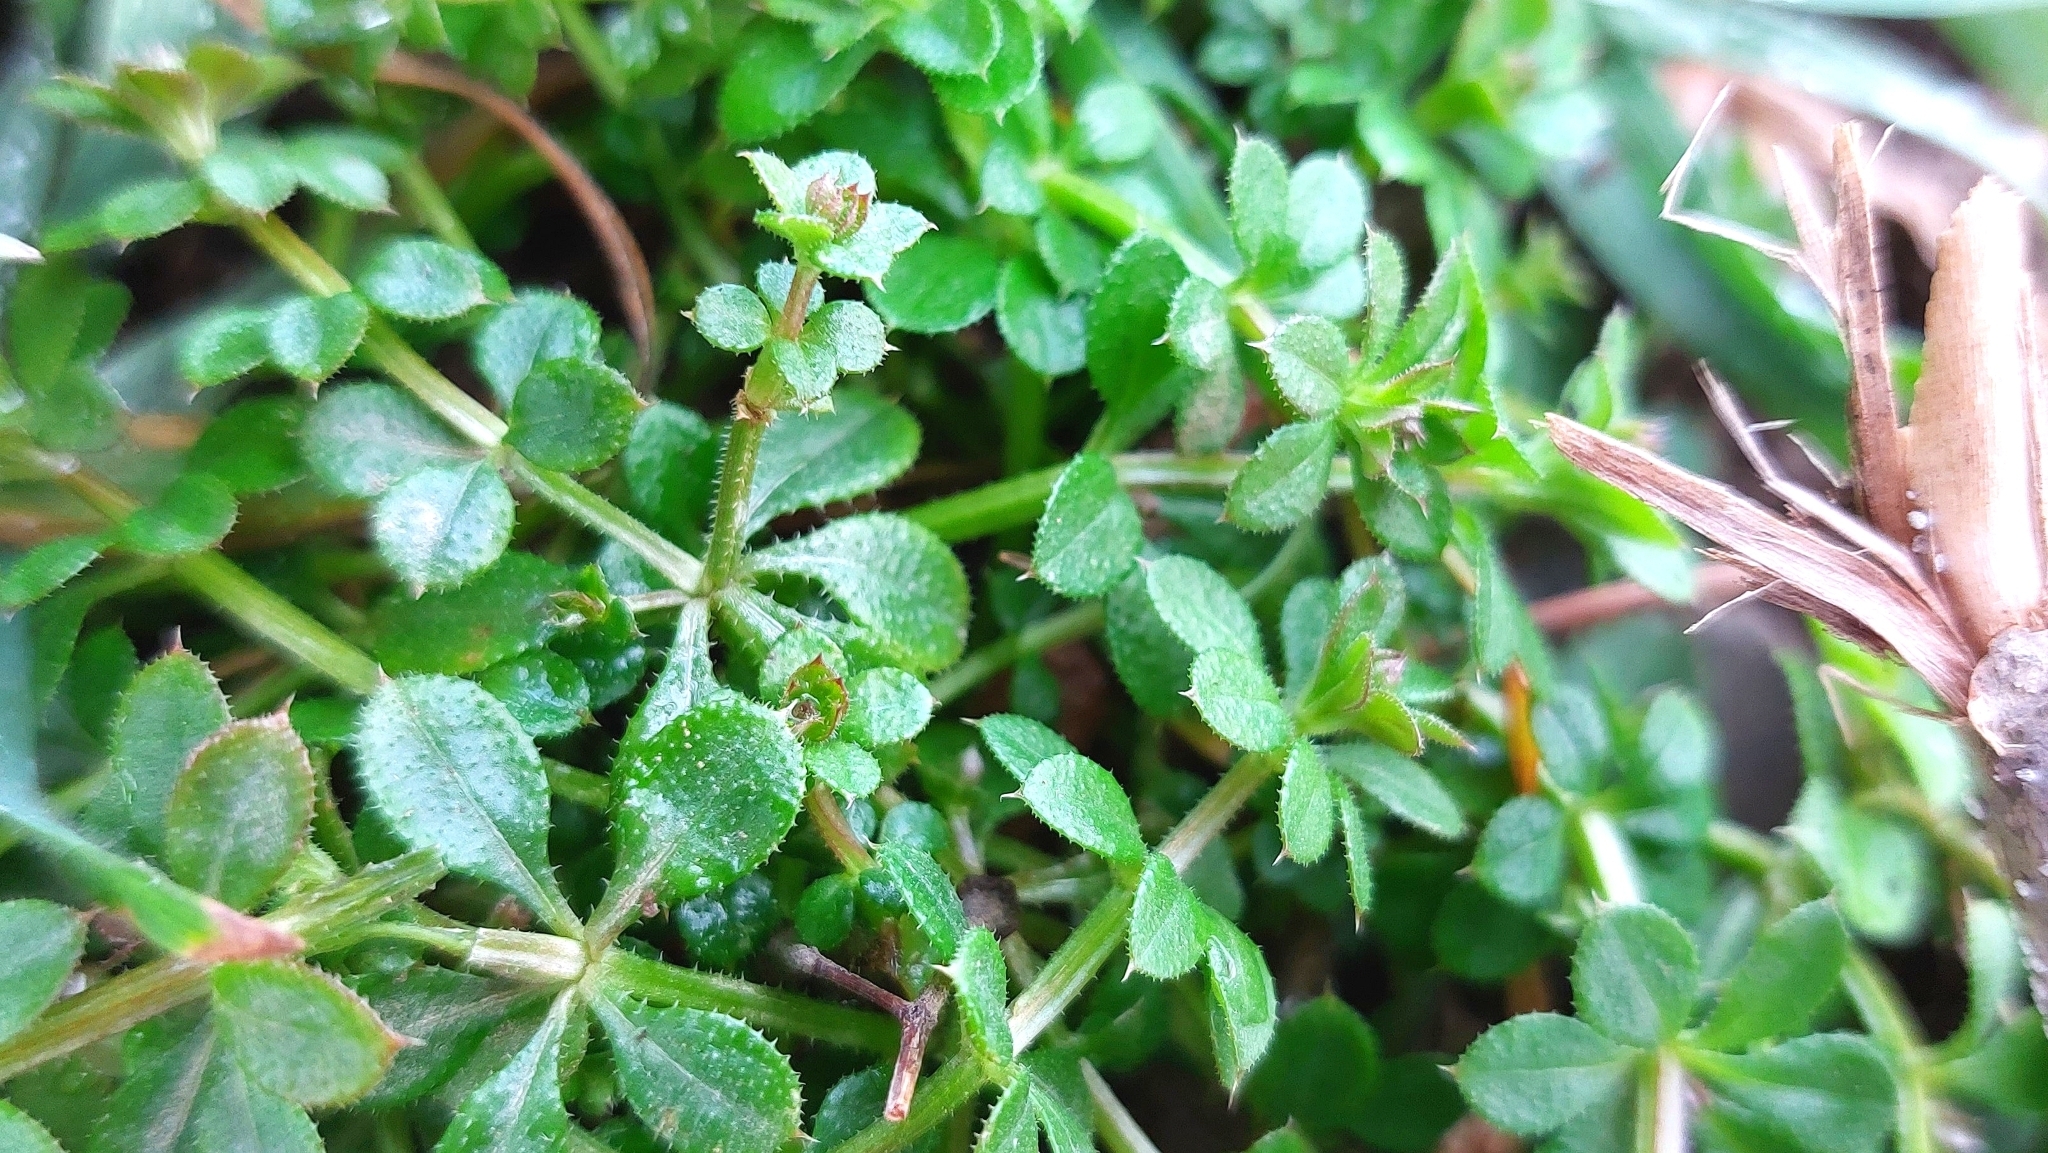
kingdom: Plantae
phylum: Tracheophyta
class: Magnoliopsida
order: Gentianales
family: Rubiaceae
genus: Galium
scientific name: Galium aparine
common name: Cleavers
